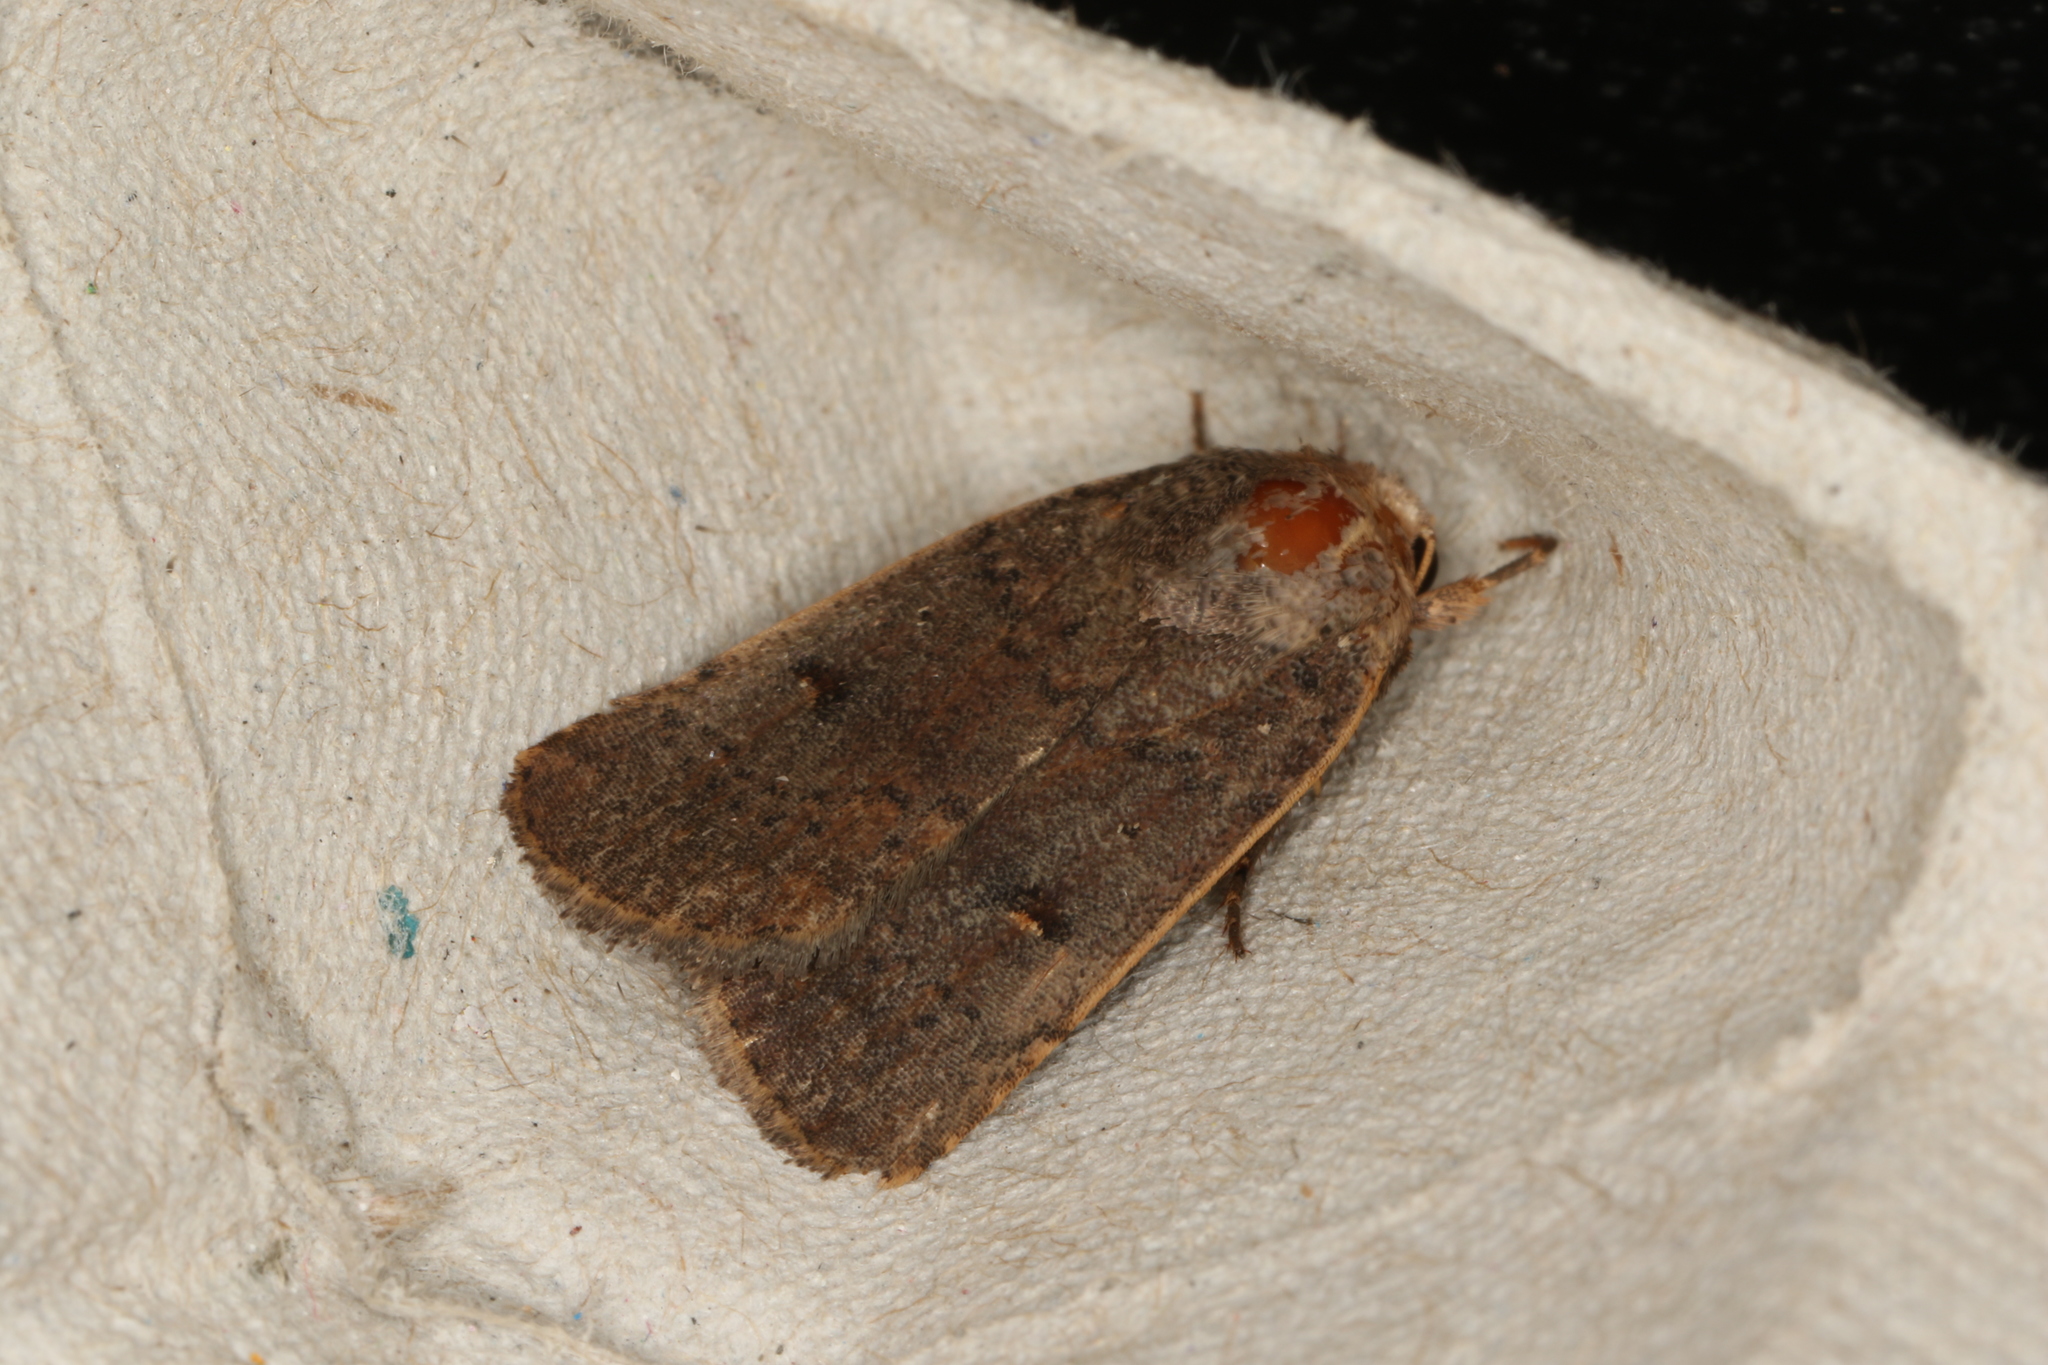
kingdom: Animalia
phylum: Arthropoda
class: Insecta
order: Lepidoptera
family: Noctuidae
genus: Proteuxoa
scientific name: Proteuxoa hypochalchis
